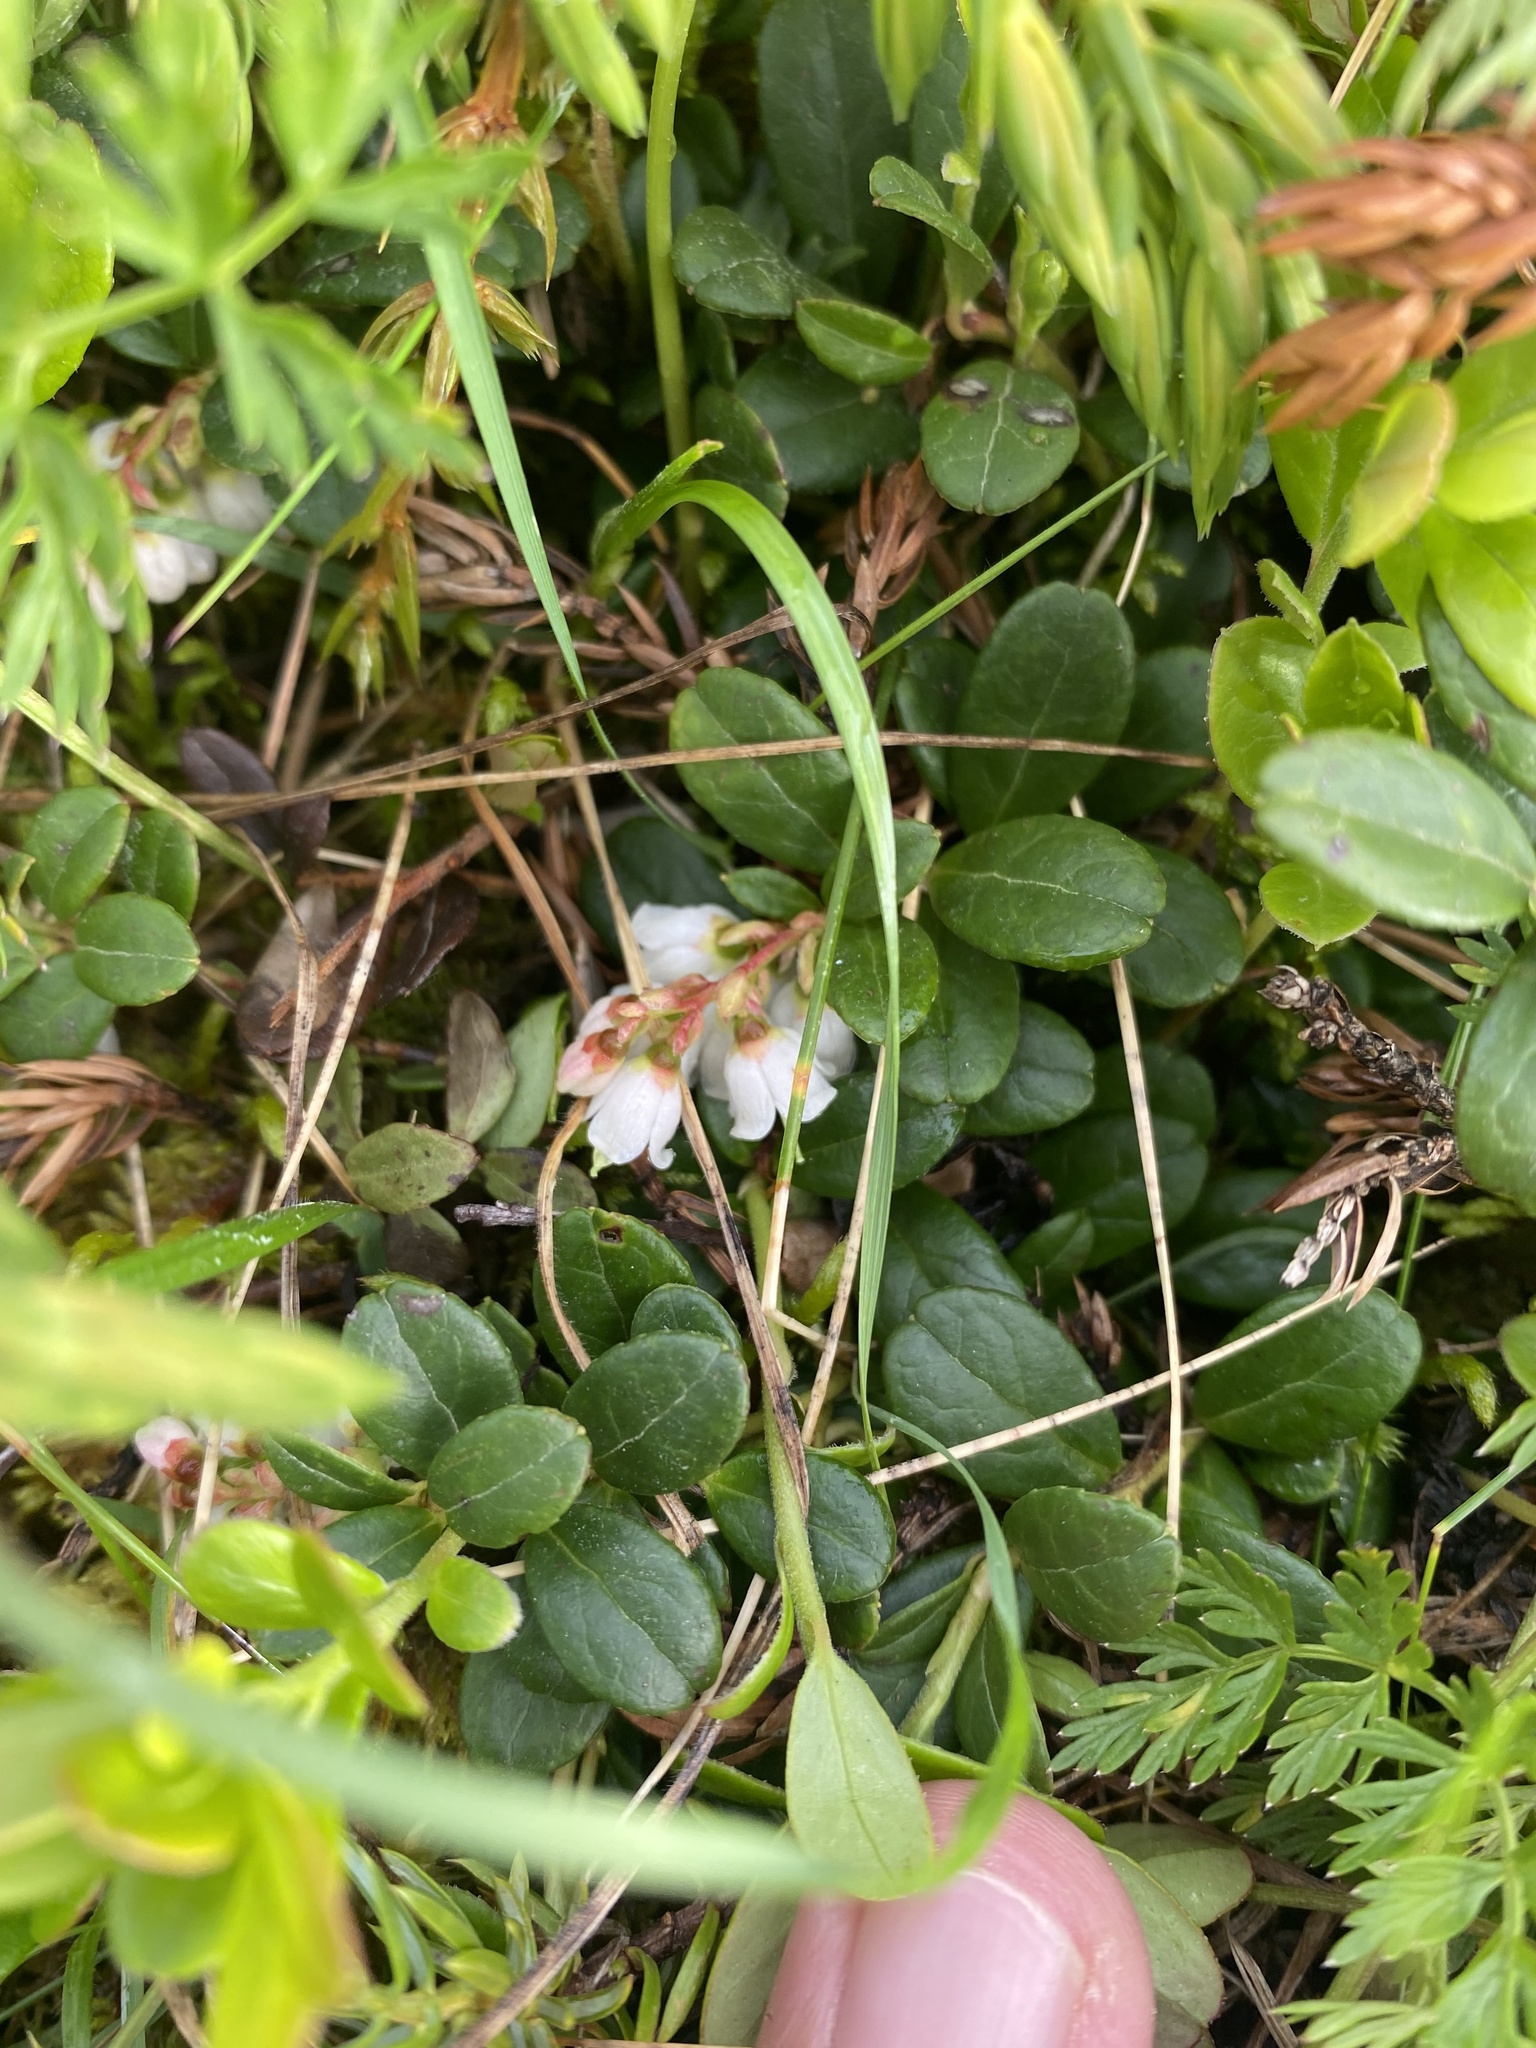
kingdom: Plantae
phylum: Tracheophyta
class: Magnoliopsida
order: Ericales
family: Ericaceae
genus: Vaccinium
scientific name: Vaccinium vitis-idaea
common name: Cowberry
